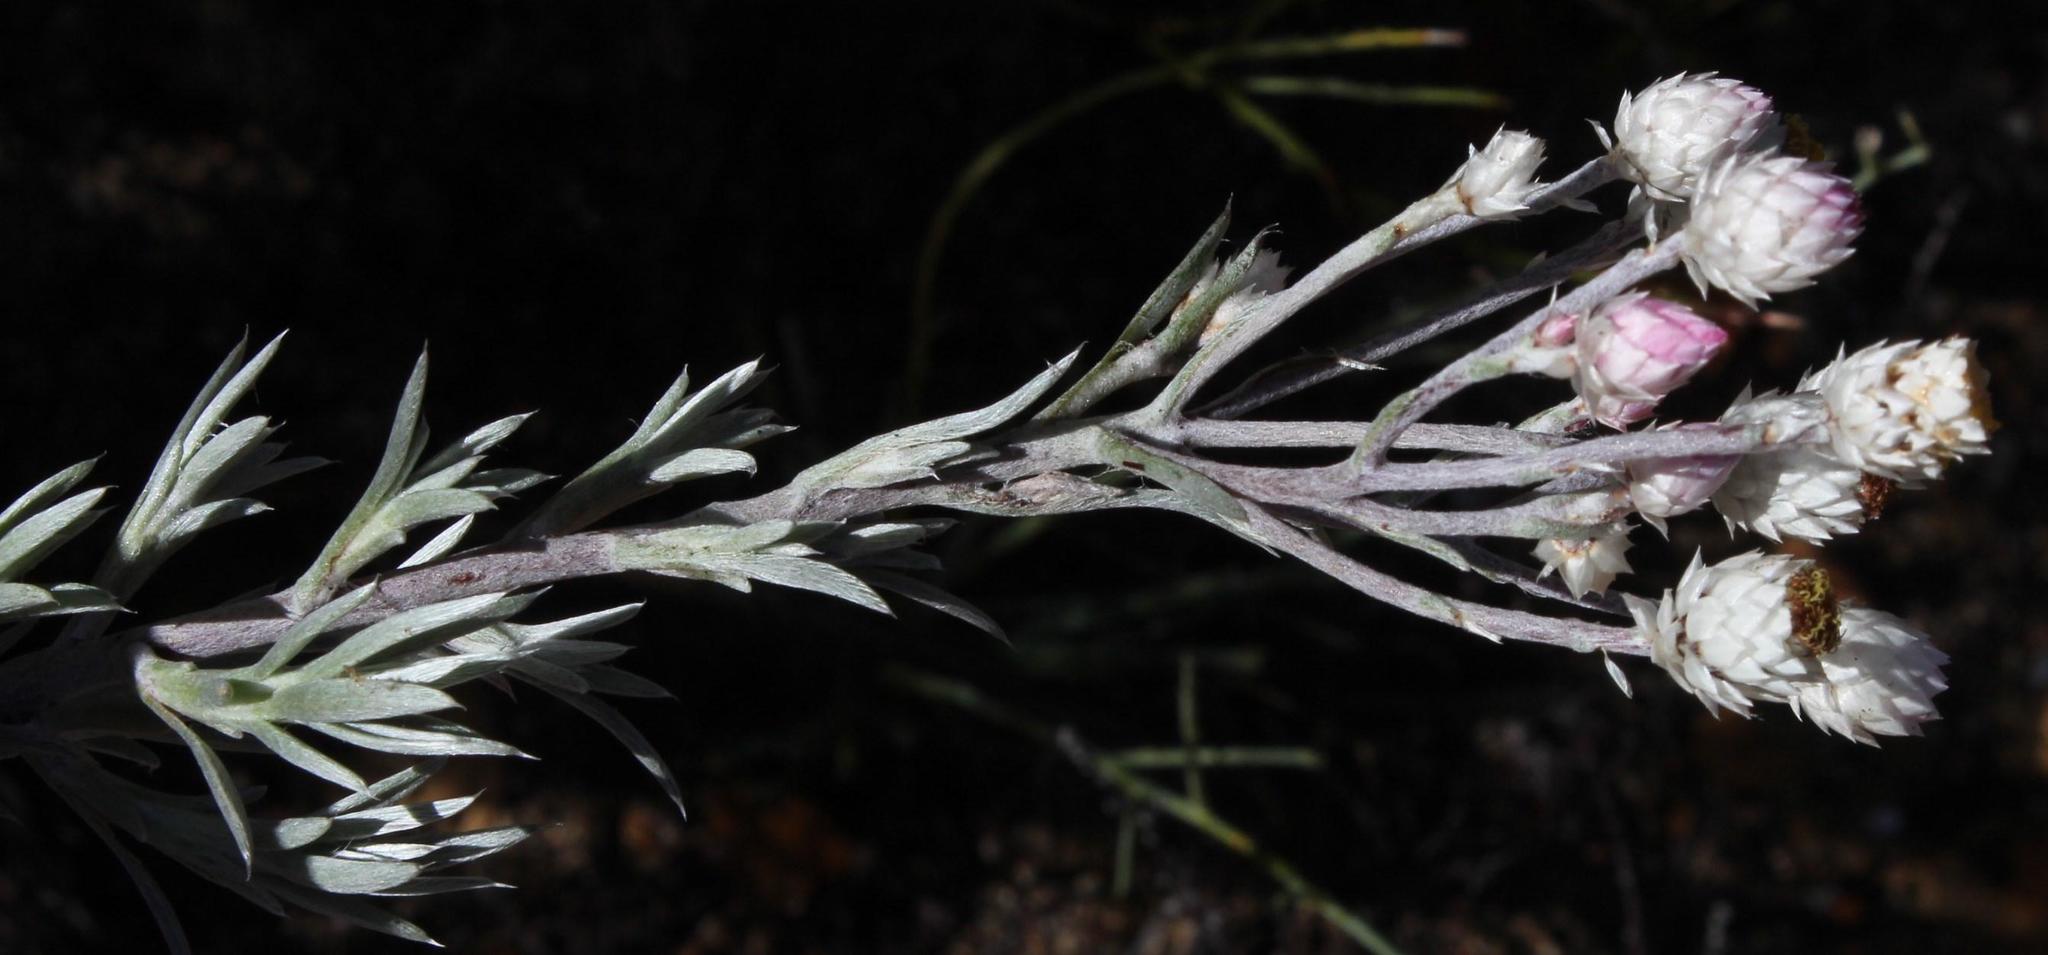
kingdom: Plantae
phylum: Tracheophyta
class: Magnoliopsida
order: Asterales
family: Asteraceae
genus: Achyranthemum
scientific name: Achyranthemum paniculatum
